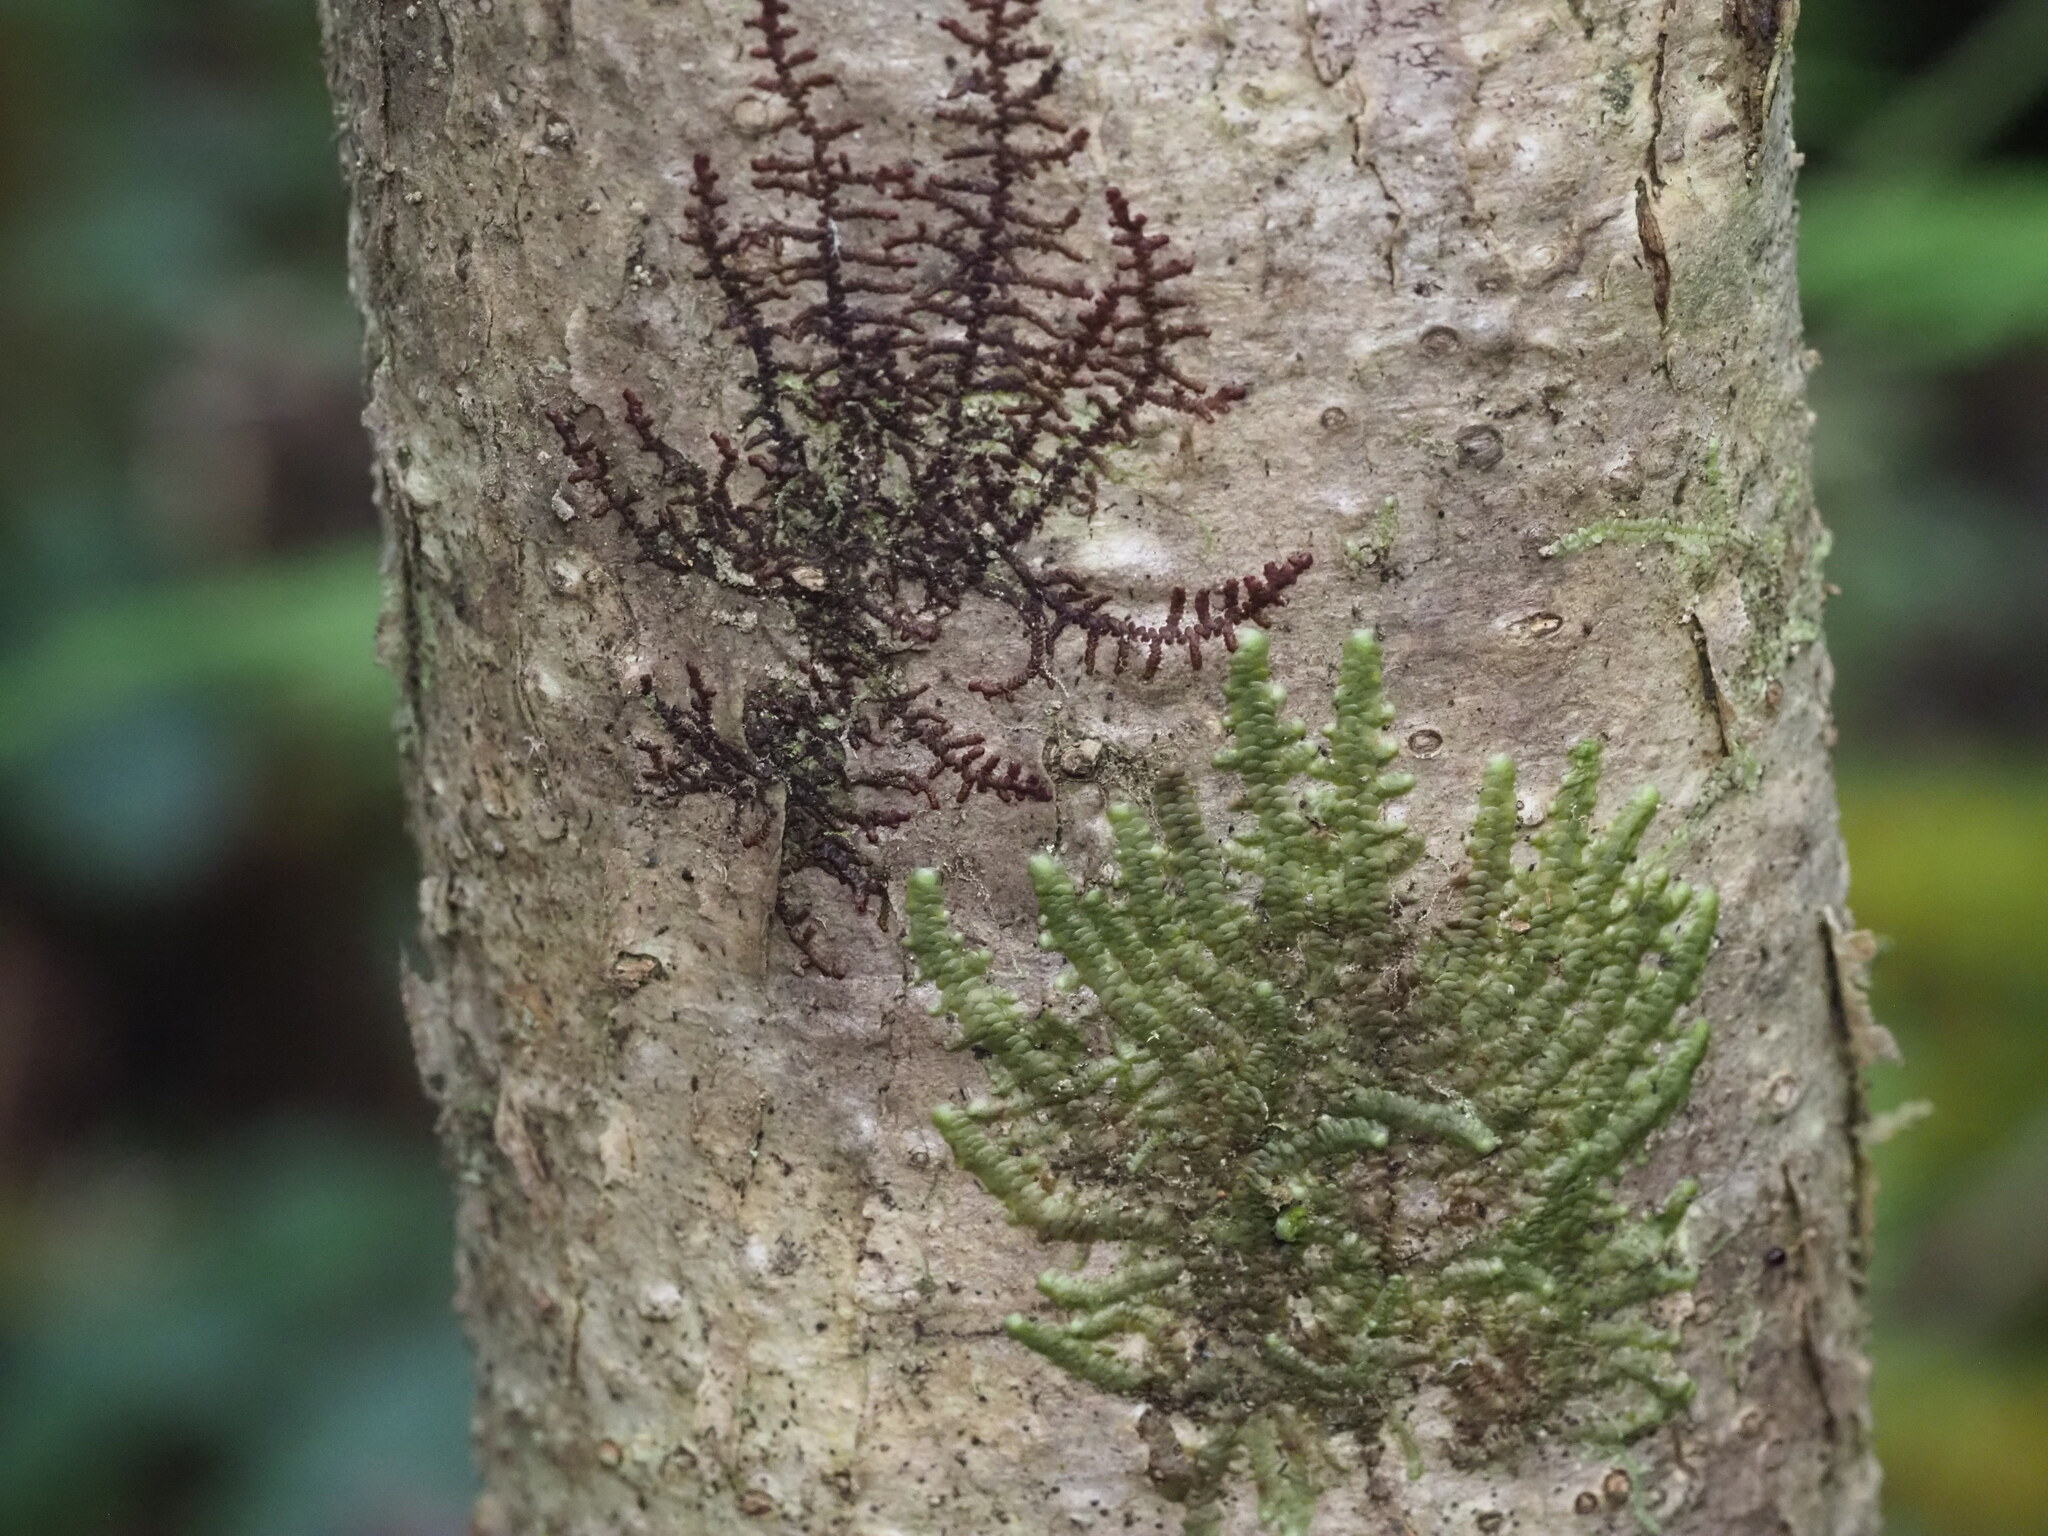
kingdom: Plantae
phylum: Marchantiophyta
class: Jungermanniopsida
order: Porellales
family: Frullaniaceae
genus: Frullania
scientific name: Frullania meyeniana
